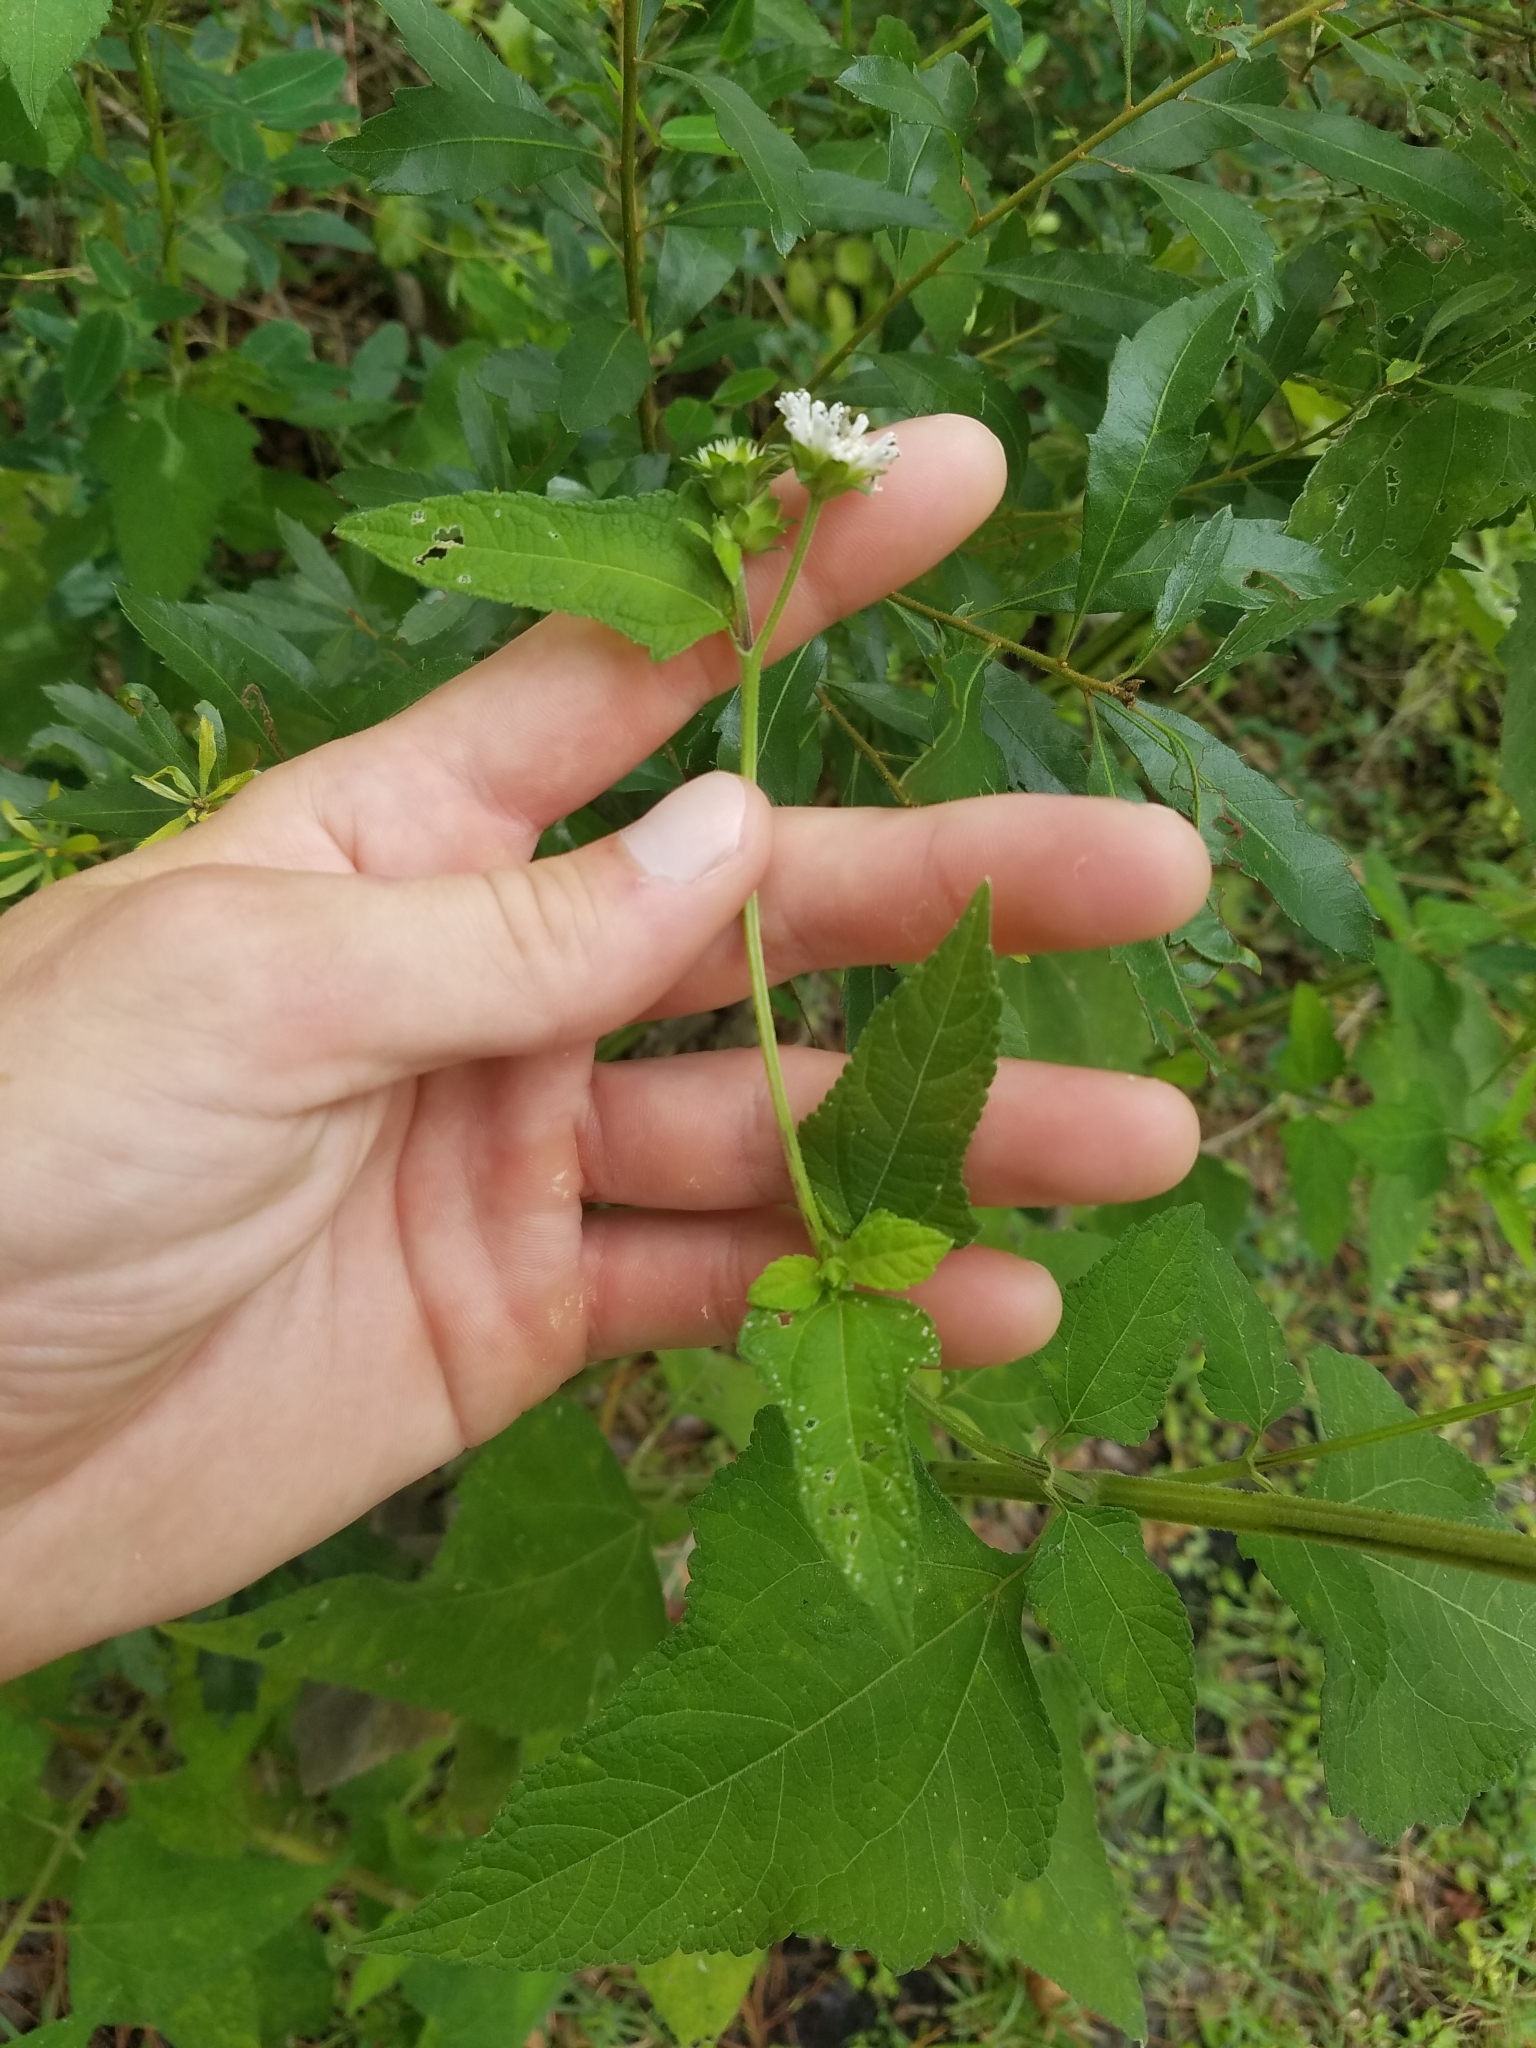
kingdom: Plantae
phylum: Tracheophyta
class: Magnoliopsida
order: Asterales
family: Asteraceae
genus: Melanthera
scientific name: Melanthera nivea
